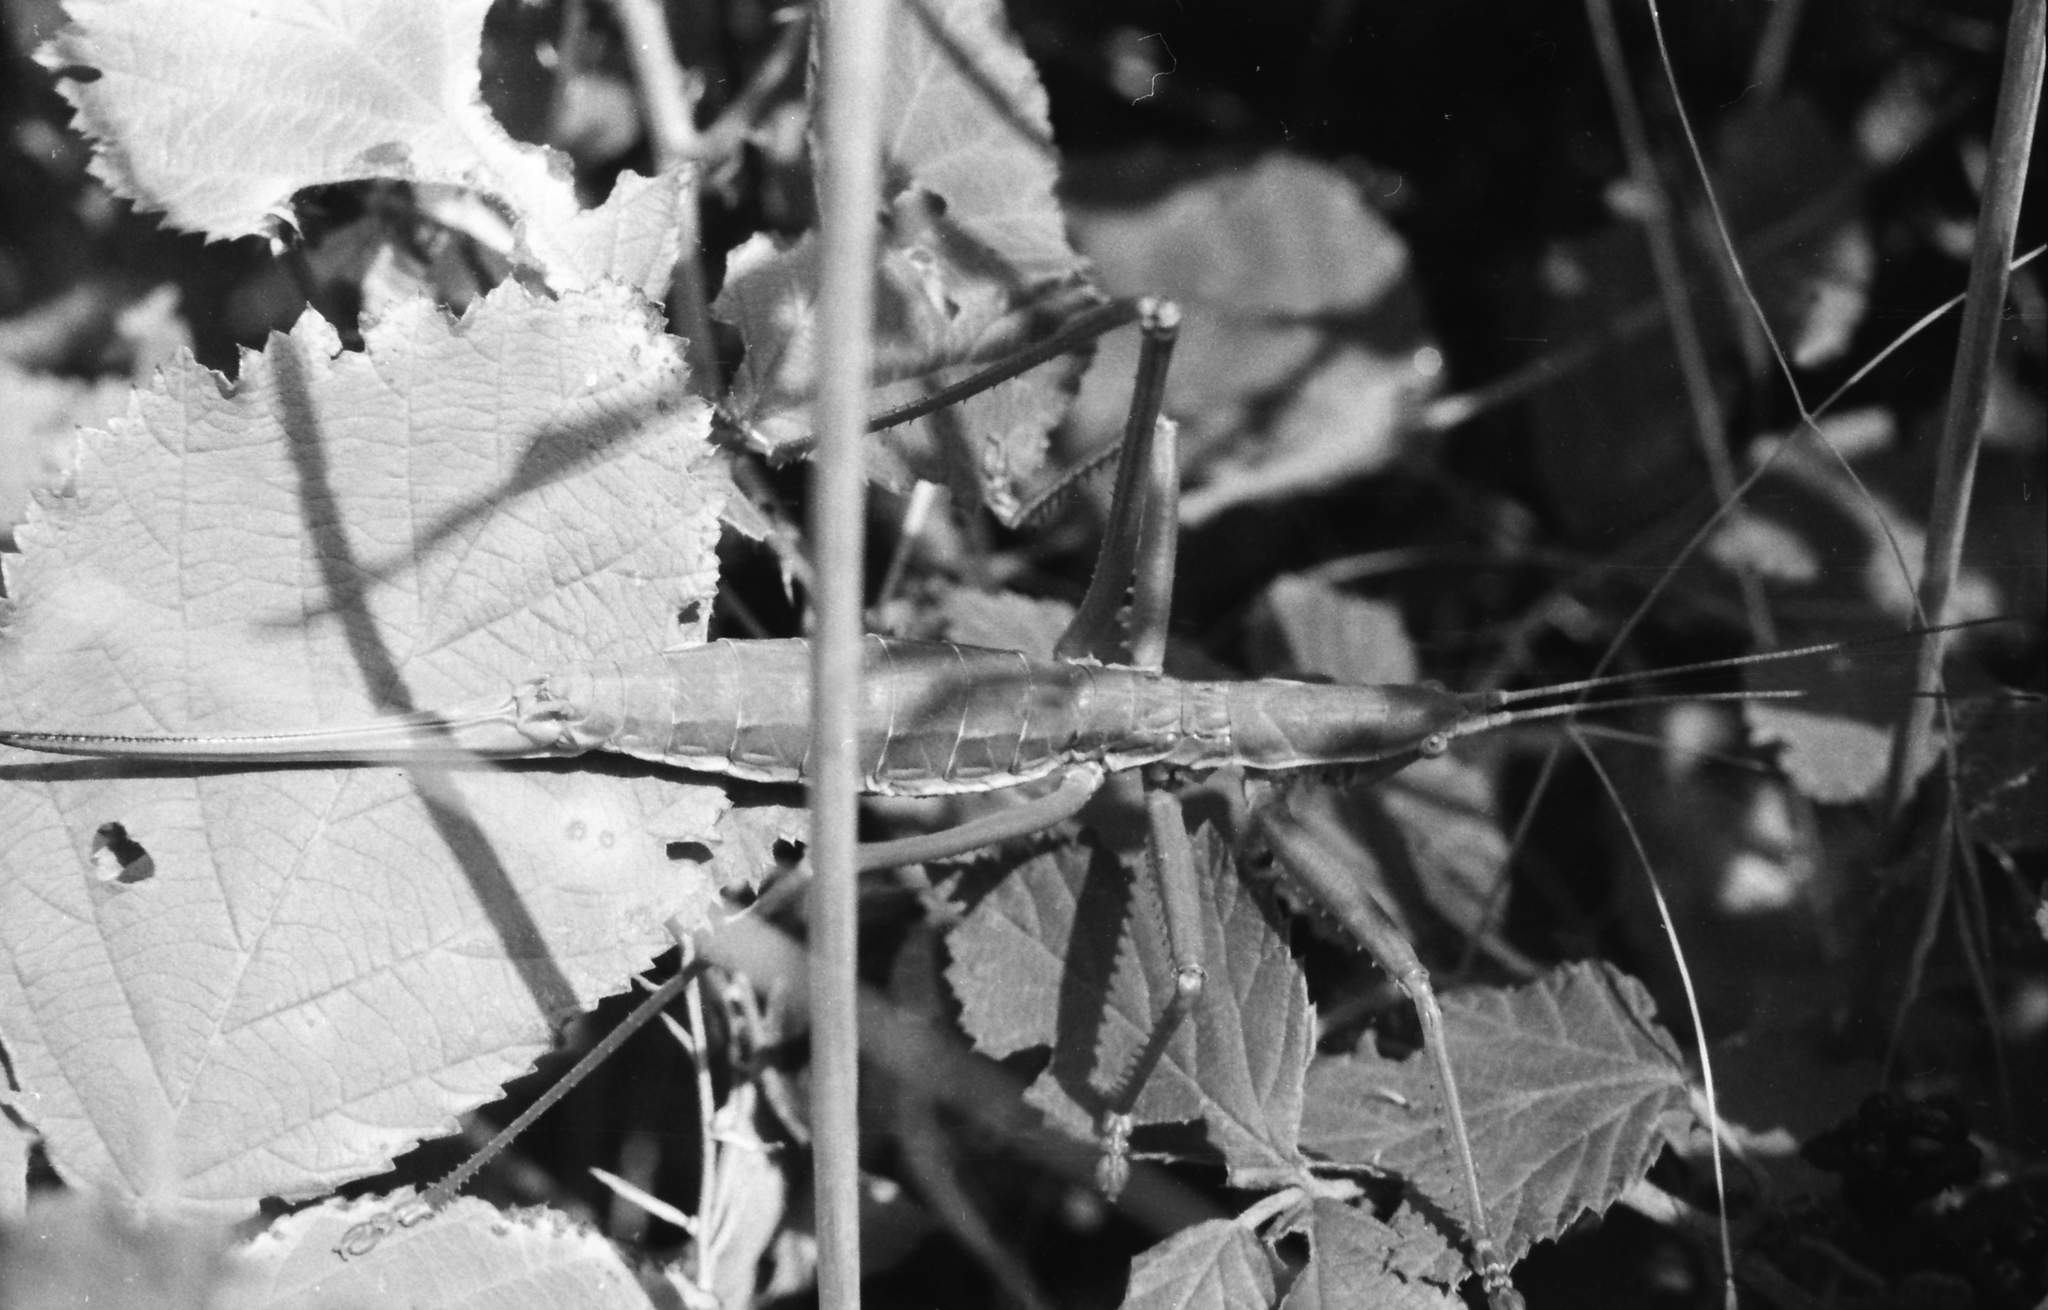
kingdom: Animalia
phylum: Arthropoda
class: Insecta
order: Orthoptera
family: Tettigoniidae
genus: Saga
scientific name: Saga pedo
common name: Common predatory bush-cricket
